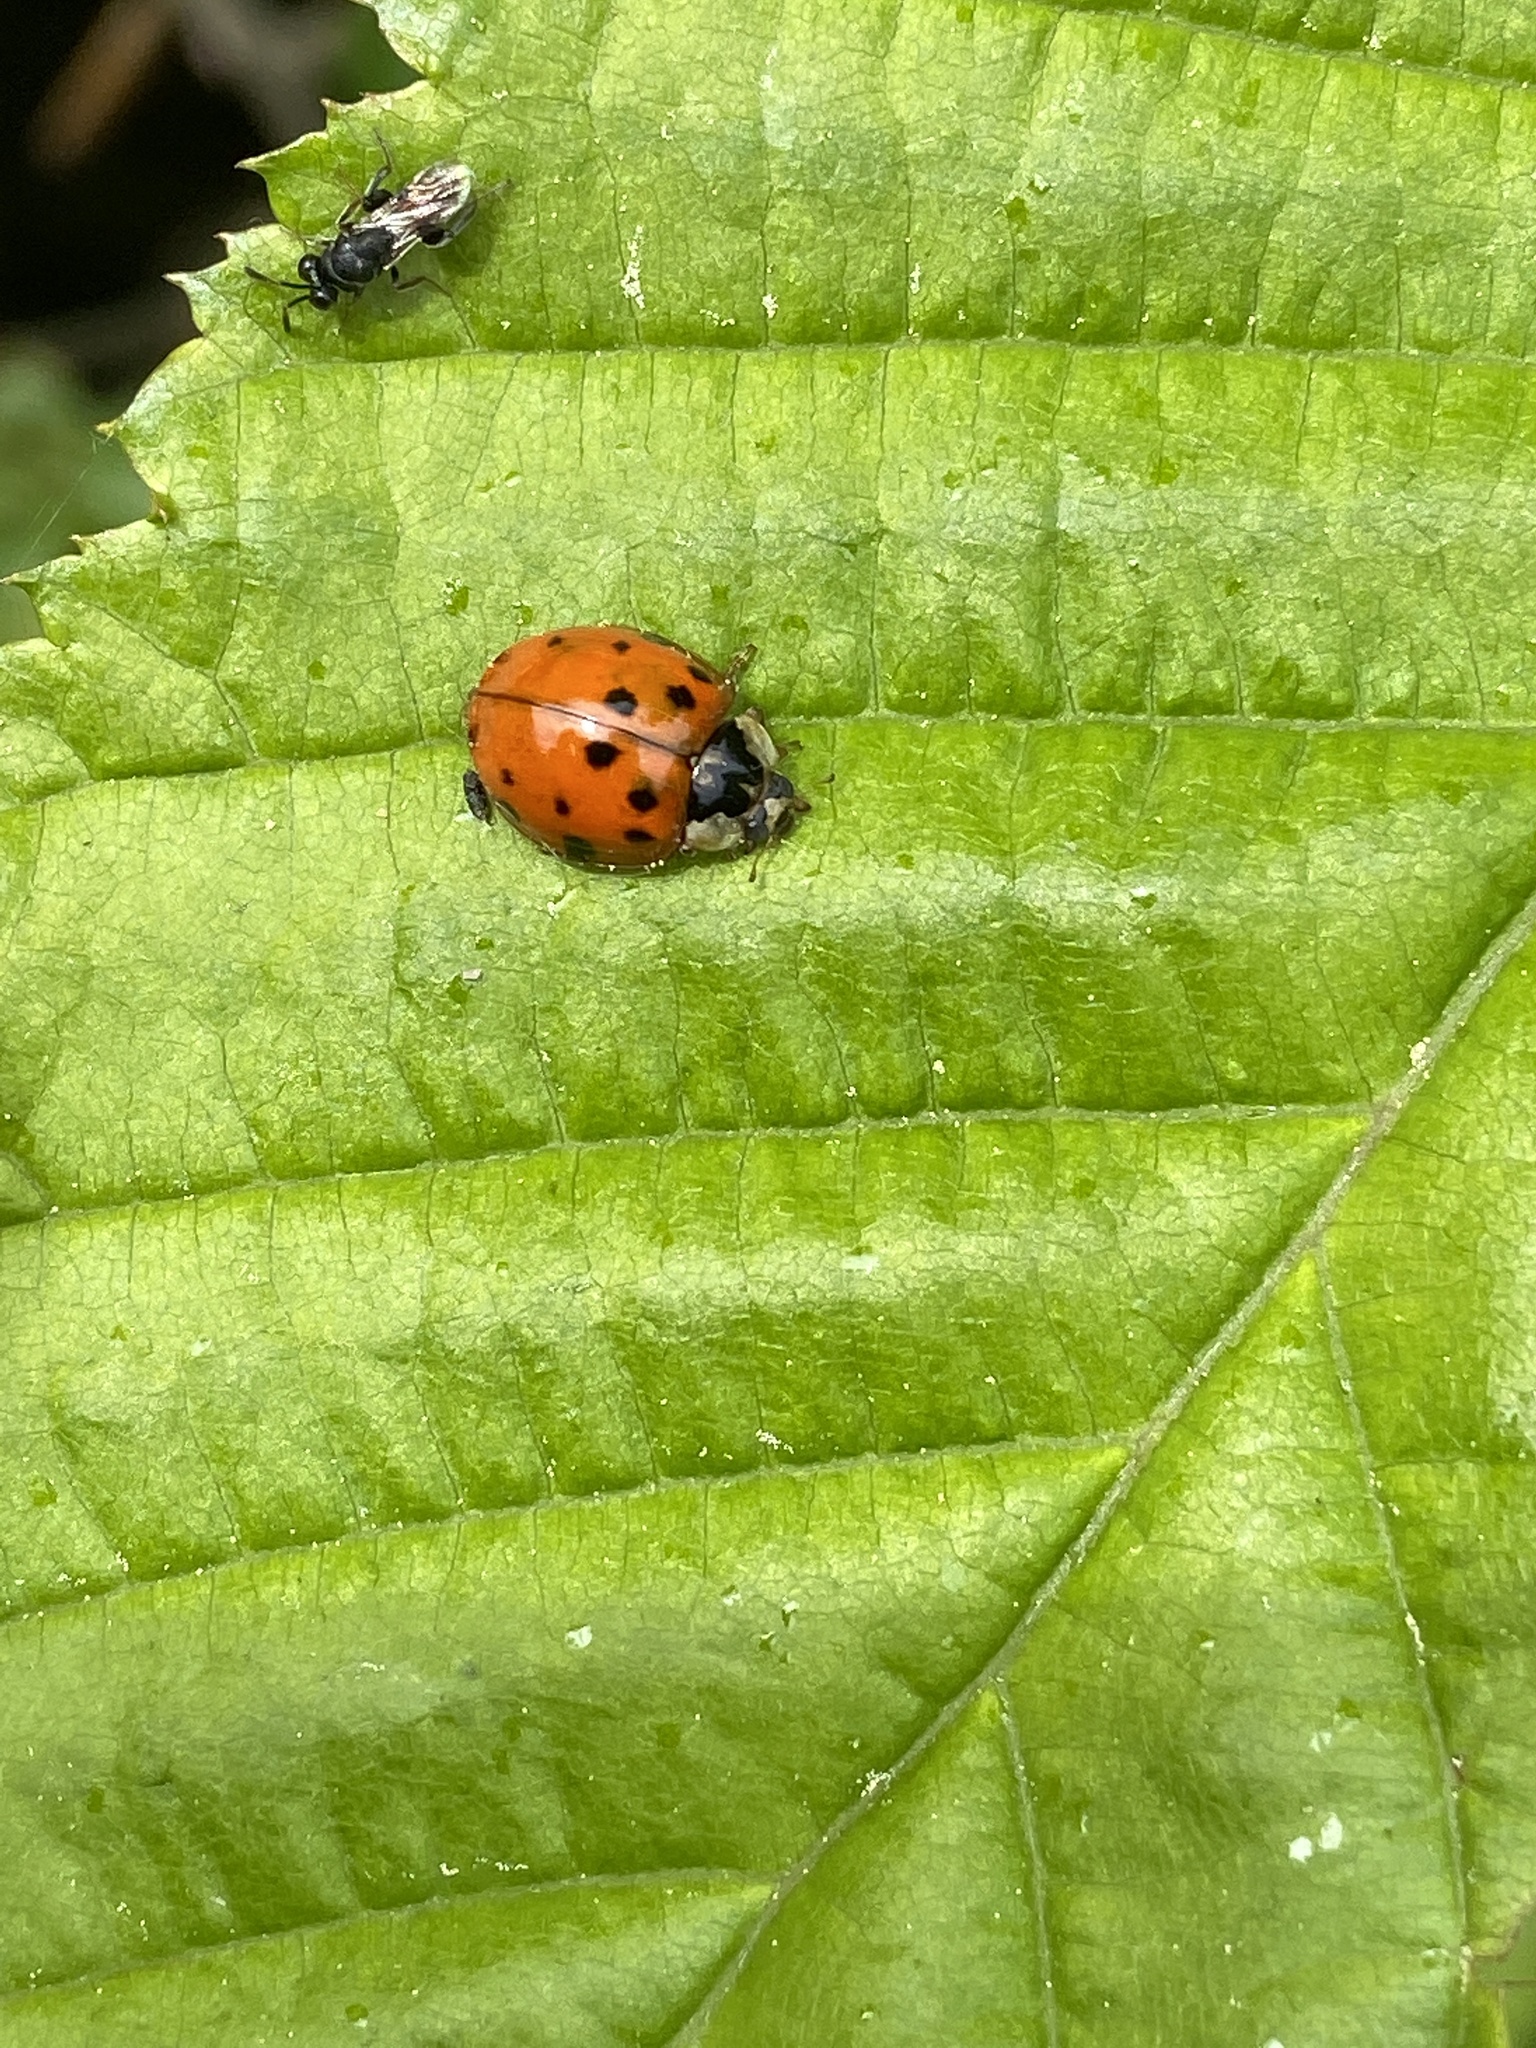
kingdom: Animalia
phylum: Arthropoda
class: Insecta
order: Coleoptera
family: Coccinellidae
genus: Harmonia
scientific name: Harmonia axyridis
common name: Harlequin ladybird
